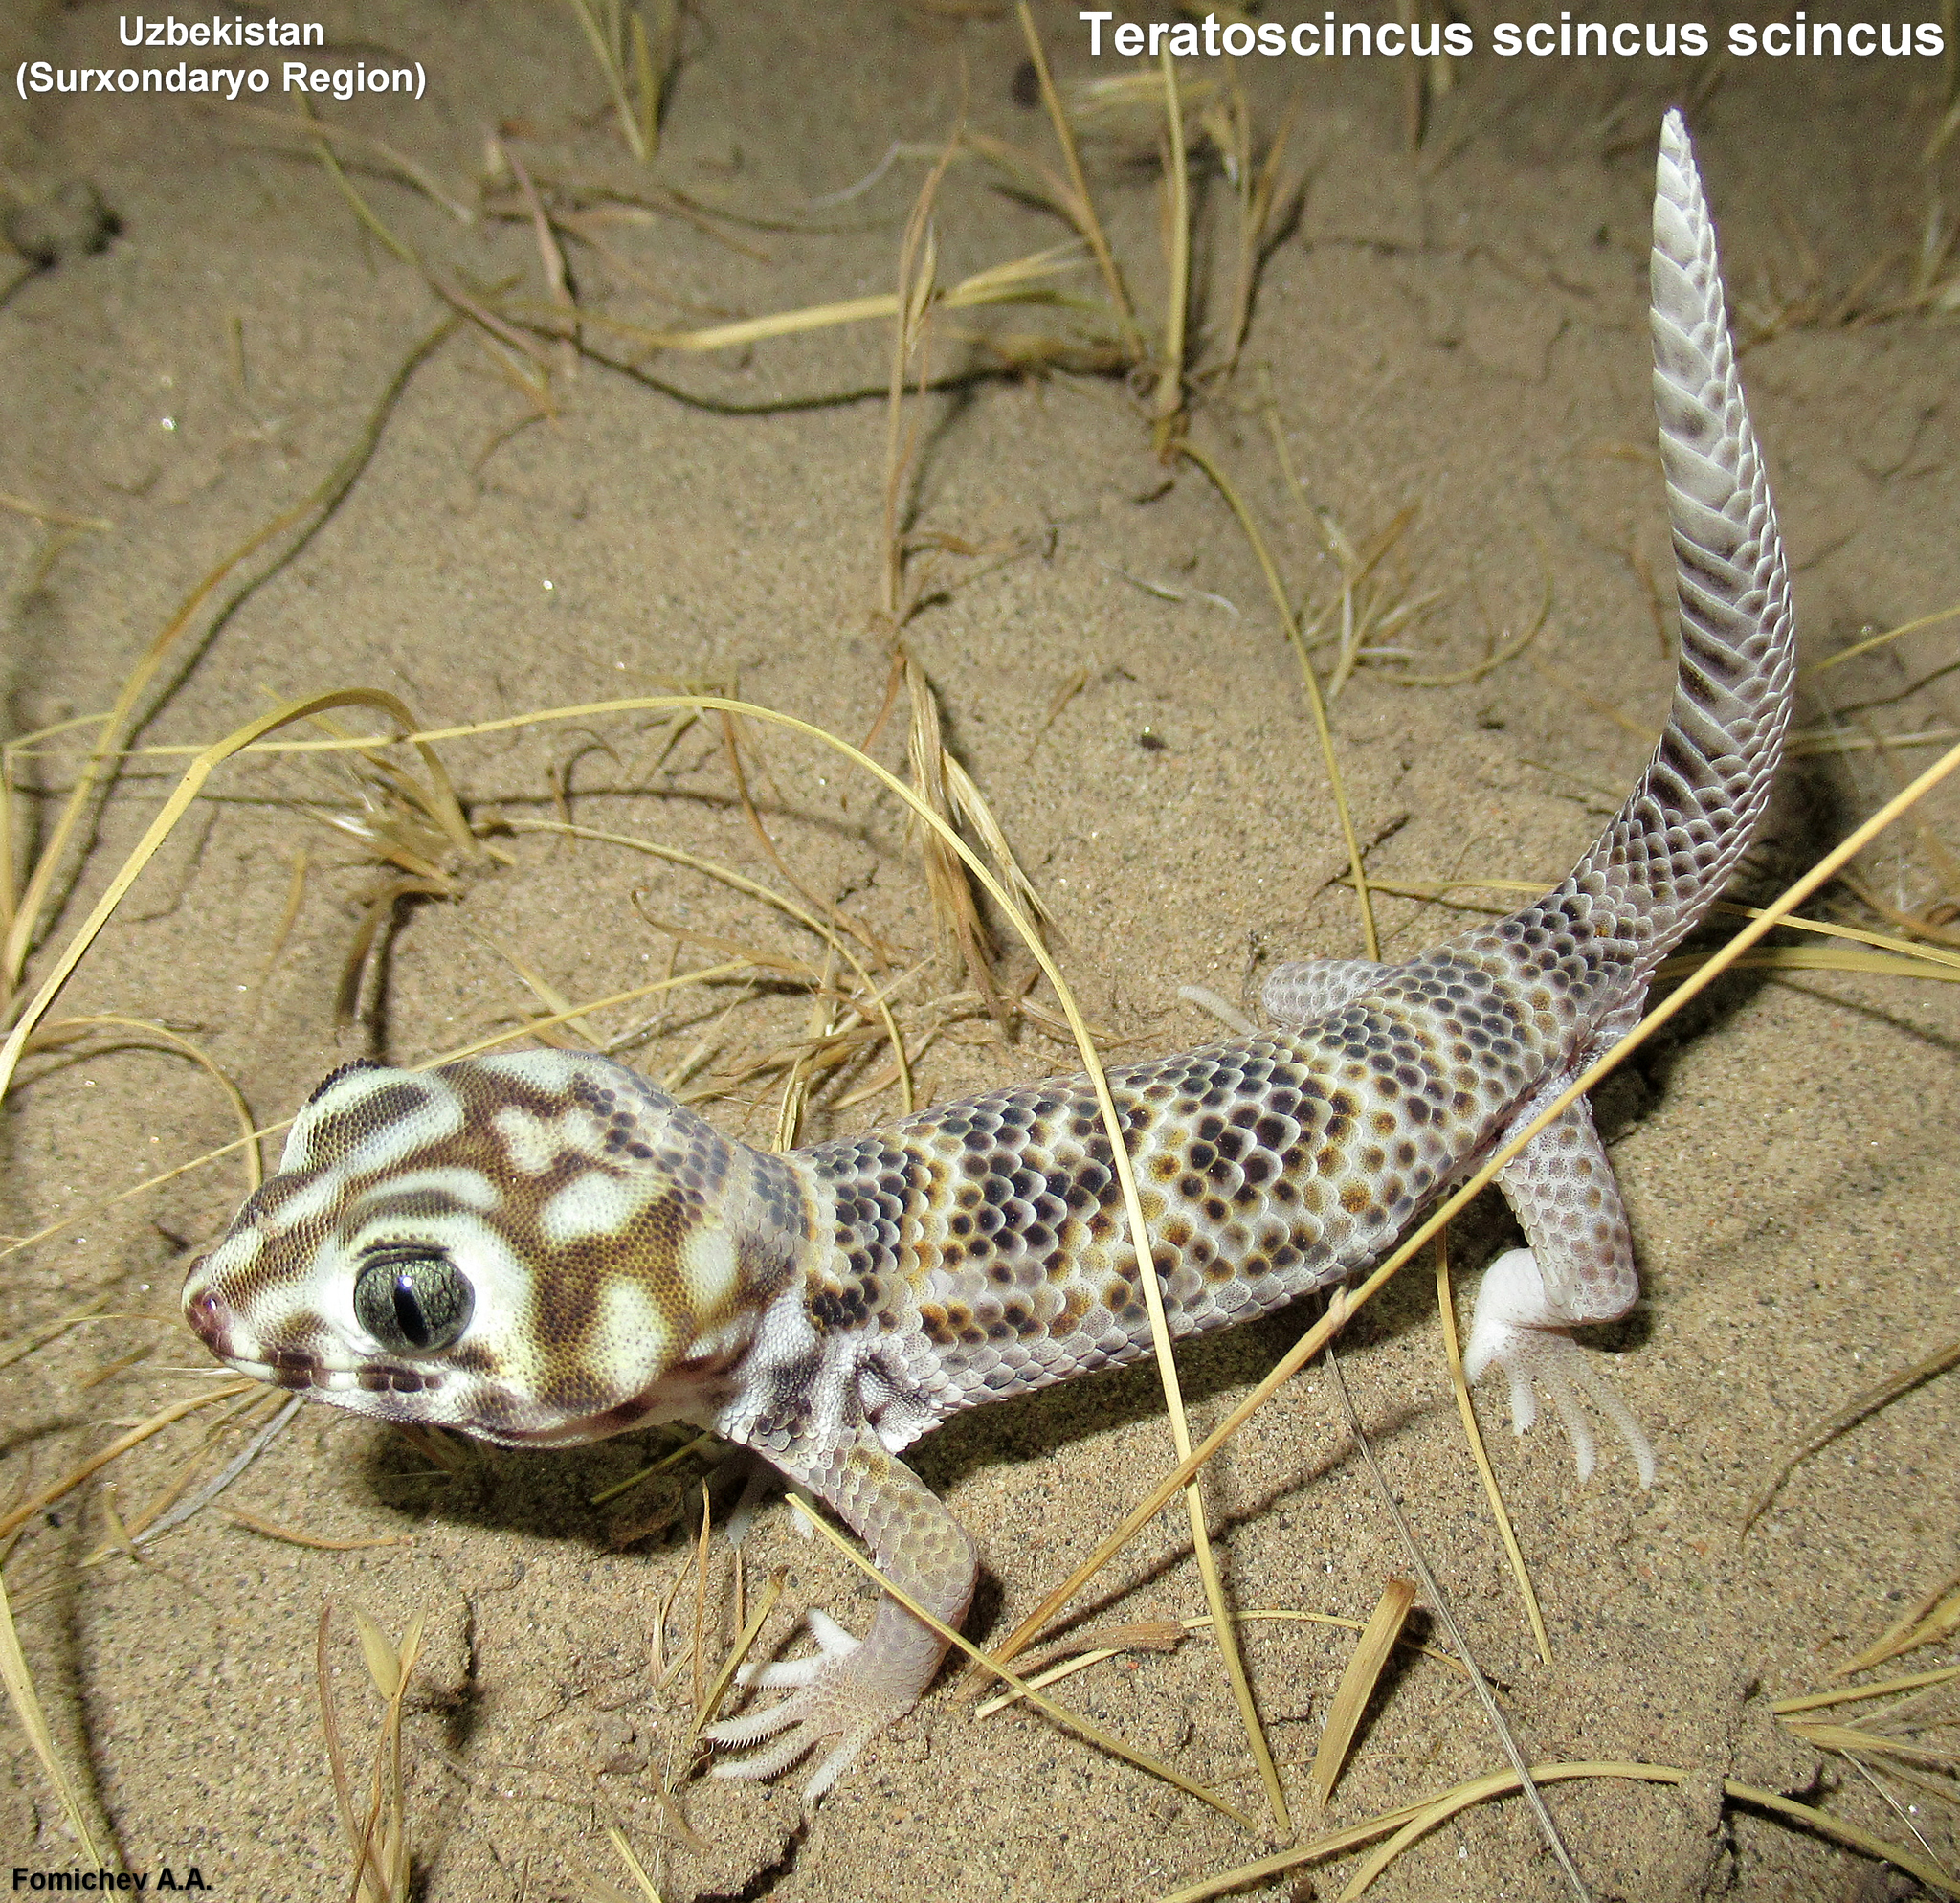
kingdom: Animalia
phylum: Chordata
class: Squamata
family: Sphaerodactylidae
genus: Teratoscincus
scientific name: Teratoscincus scincus
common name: Common wonder gecko
